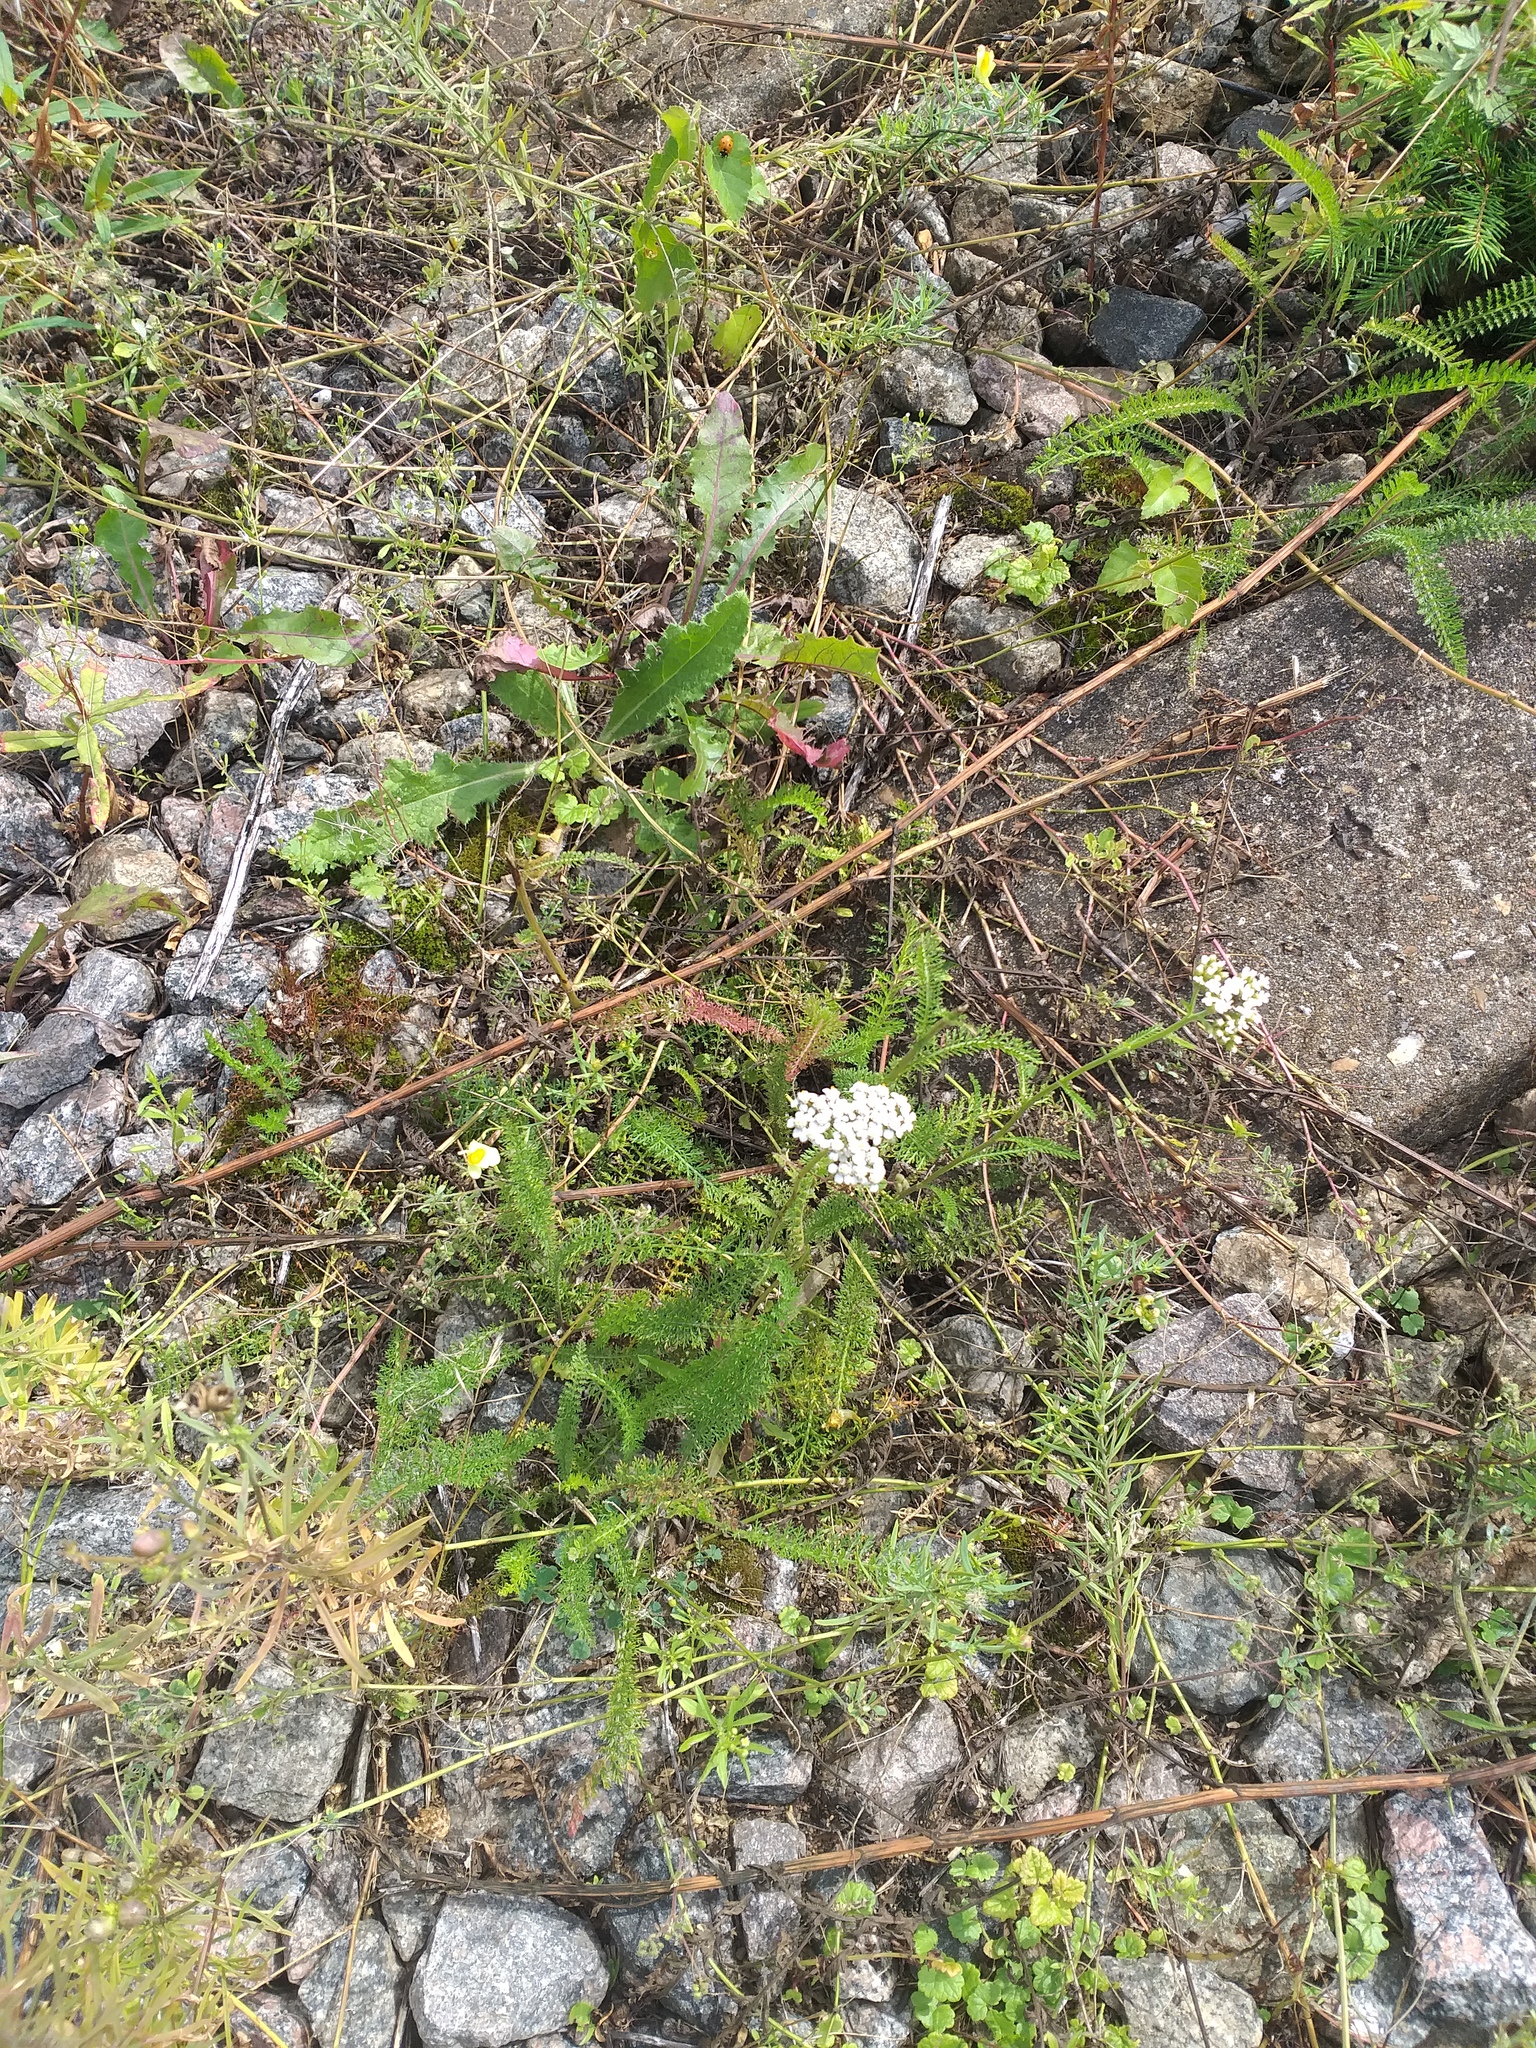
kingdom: Plantae
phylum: Tracheophyta
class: Magnoliopsida
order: Asterales
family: Asteraceae
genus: Achillea
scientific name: Achillea millefolium
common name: Yarrow
